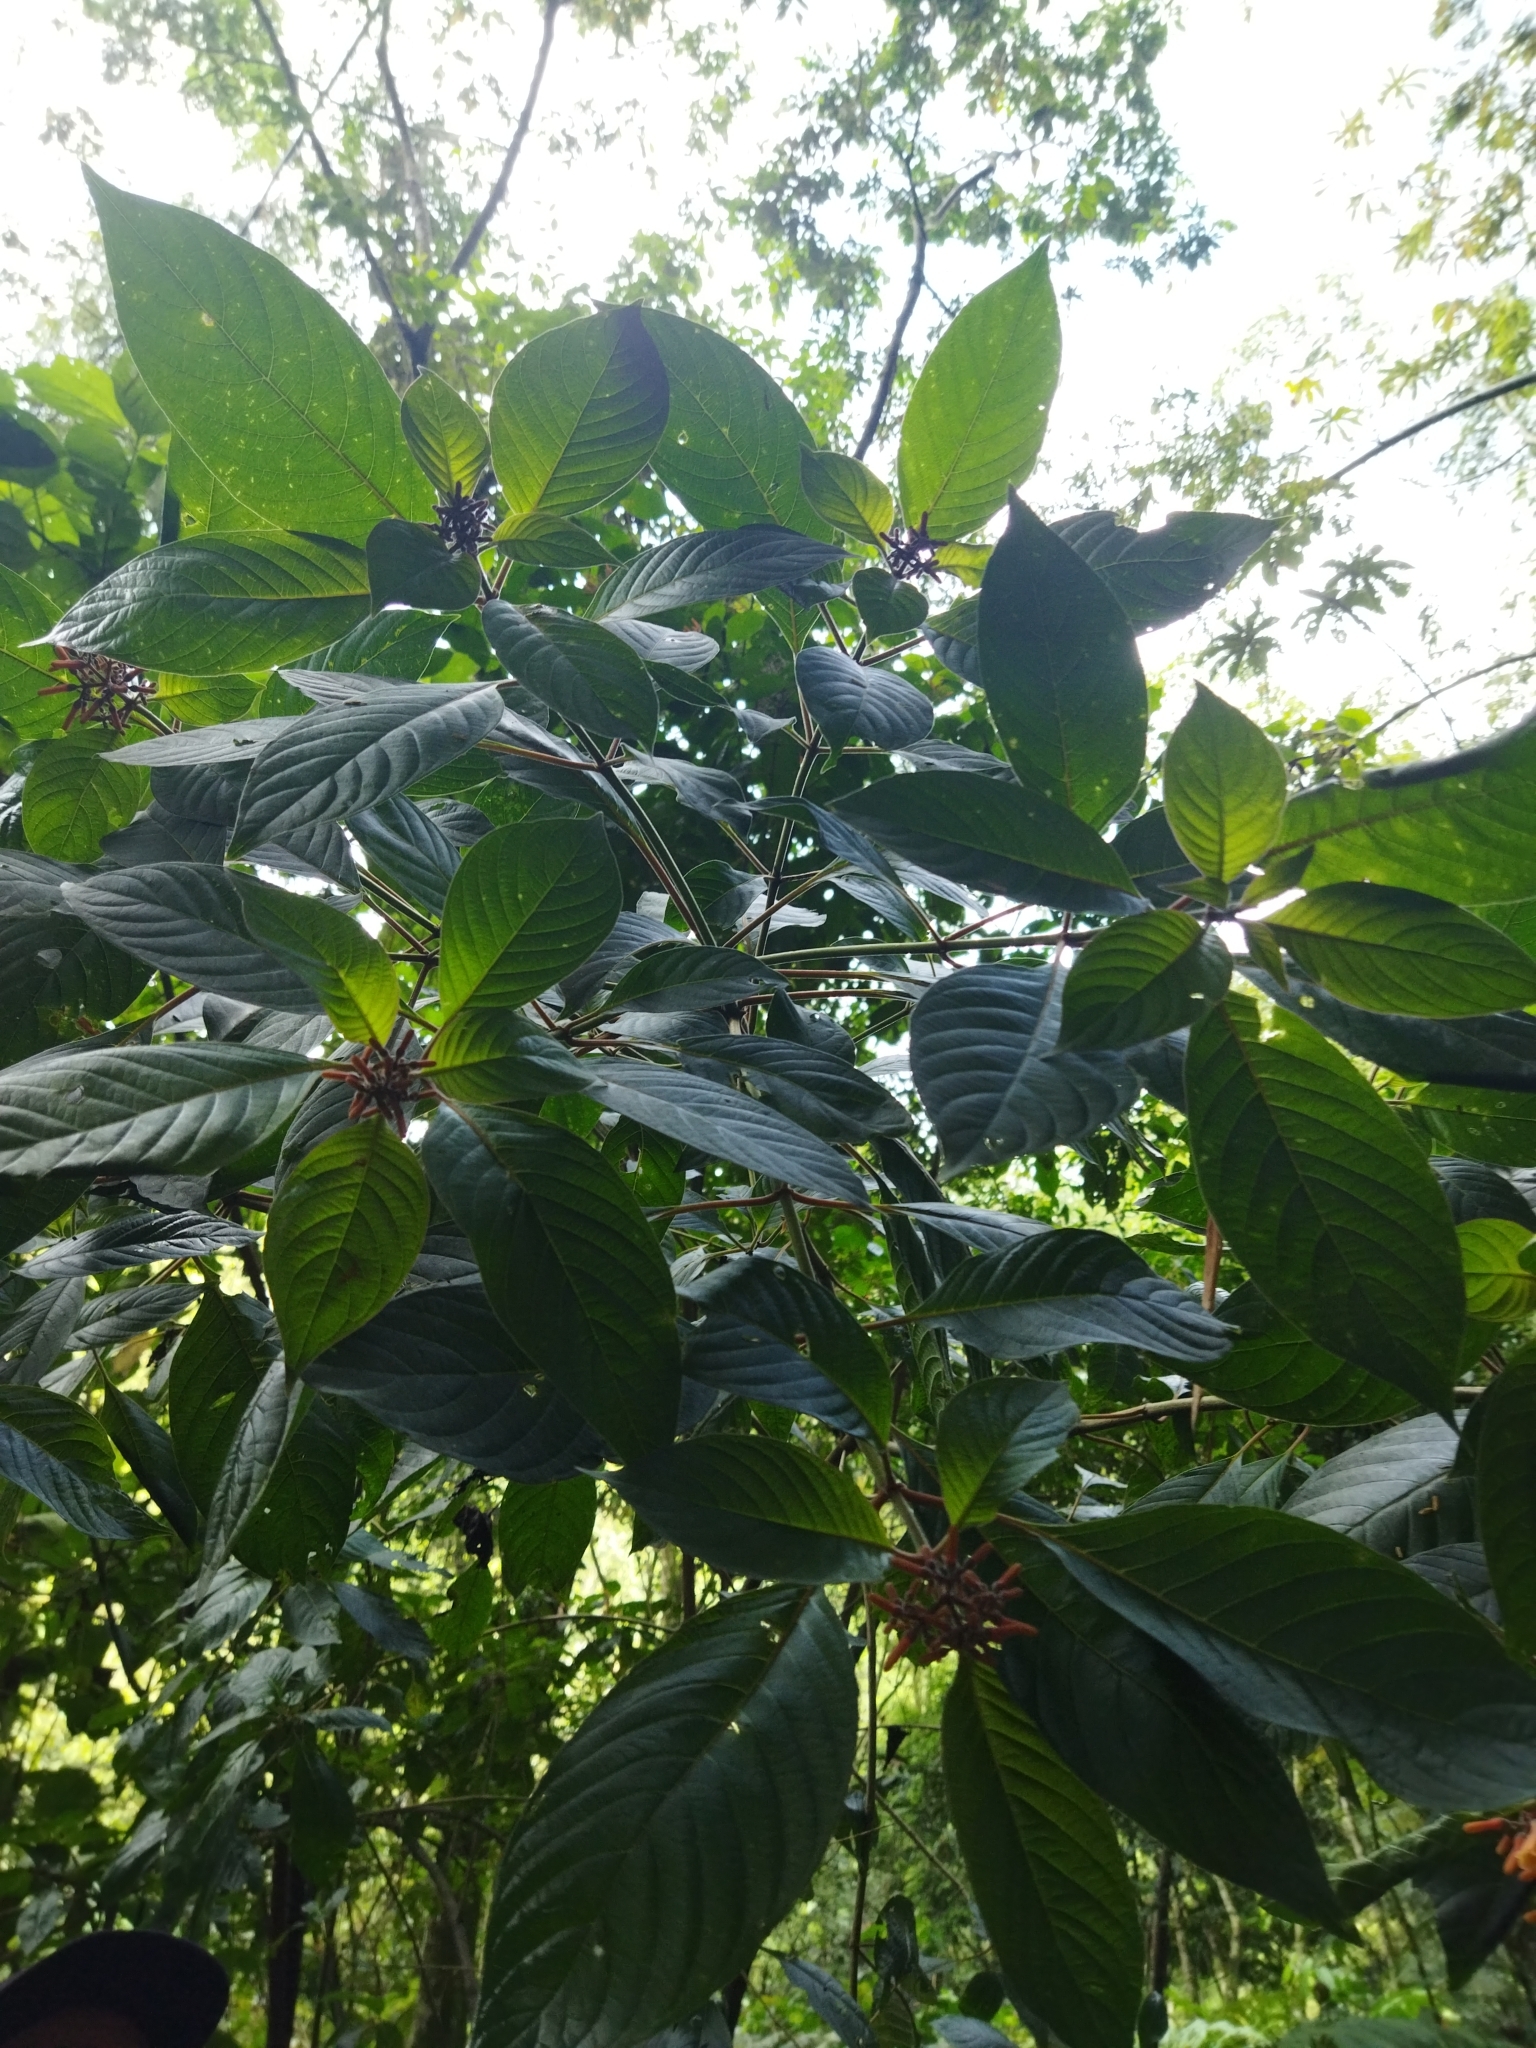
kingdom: Plantae
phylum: Tracheophyta
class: Magnoliopsida
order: Gentianales
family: Rubiaceae
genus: Hamelia
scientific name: Hamelia patens
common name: Redhead
